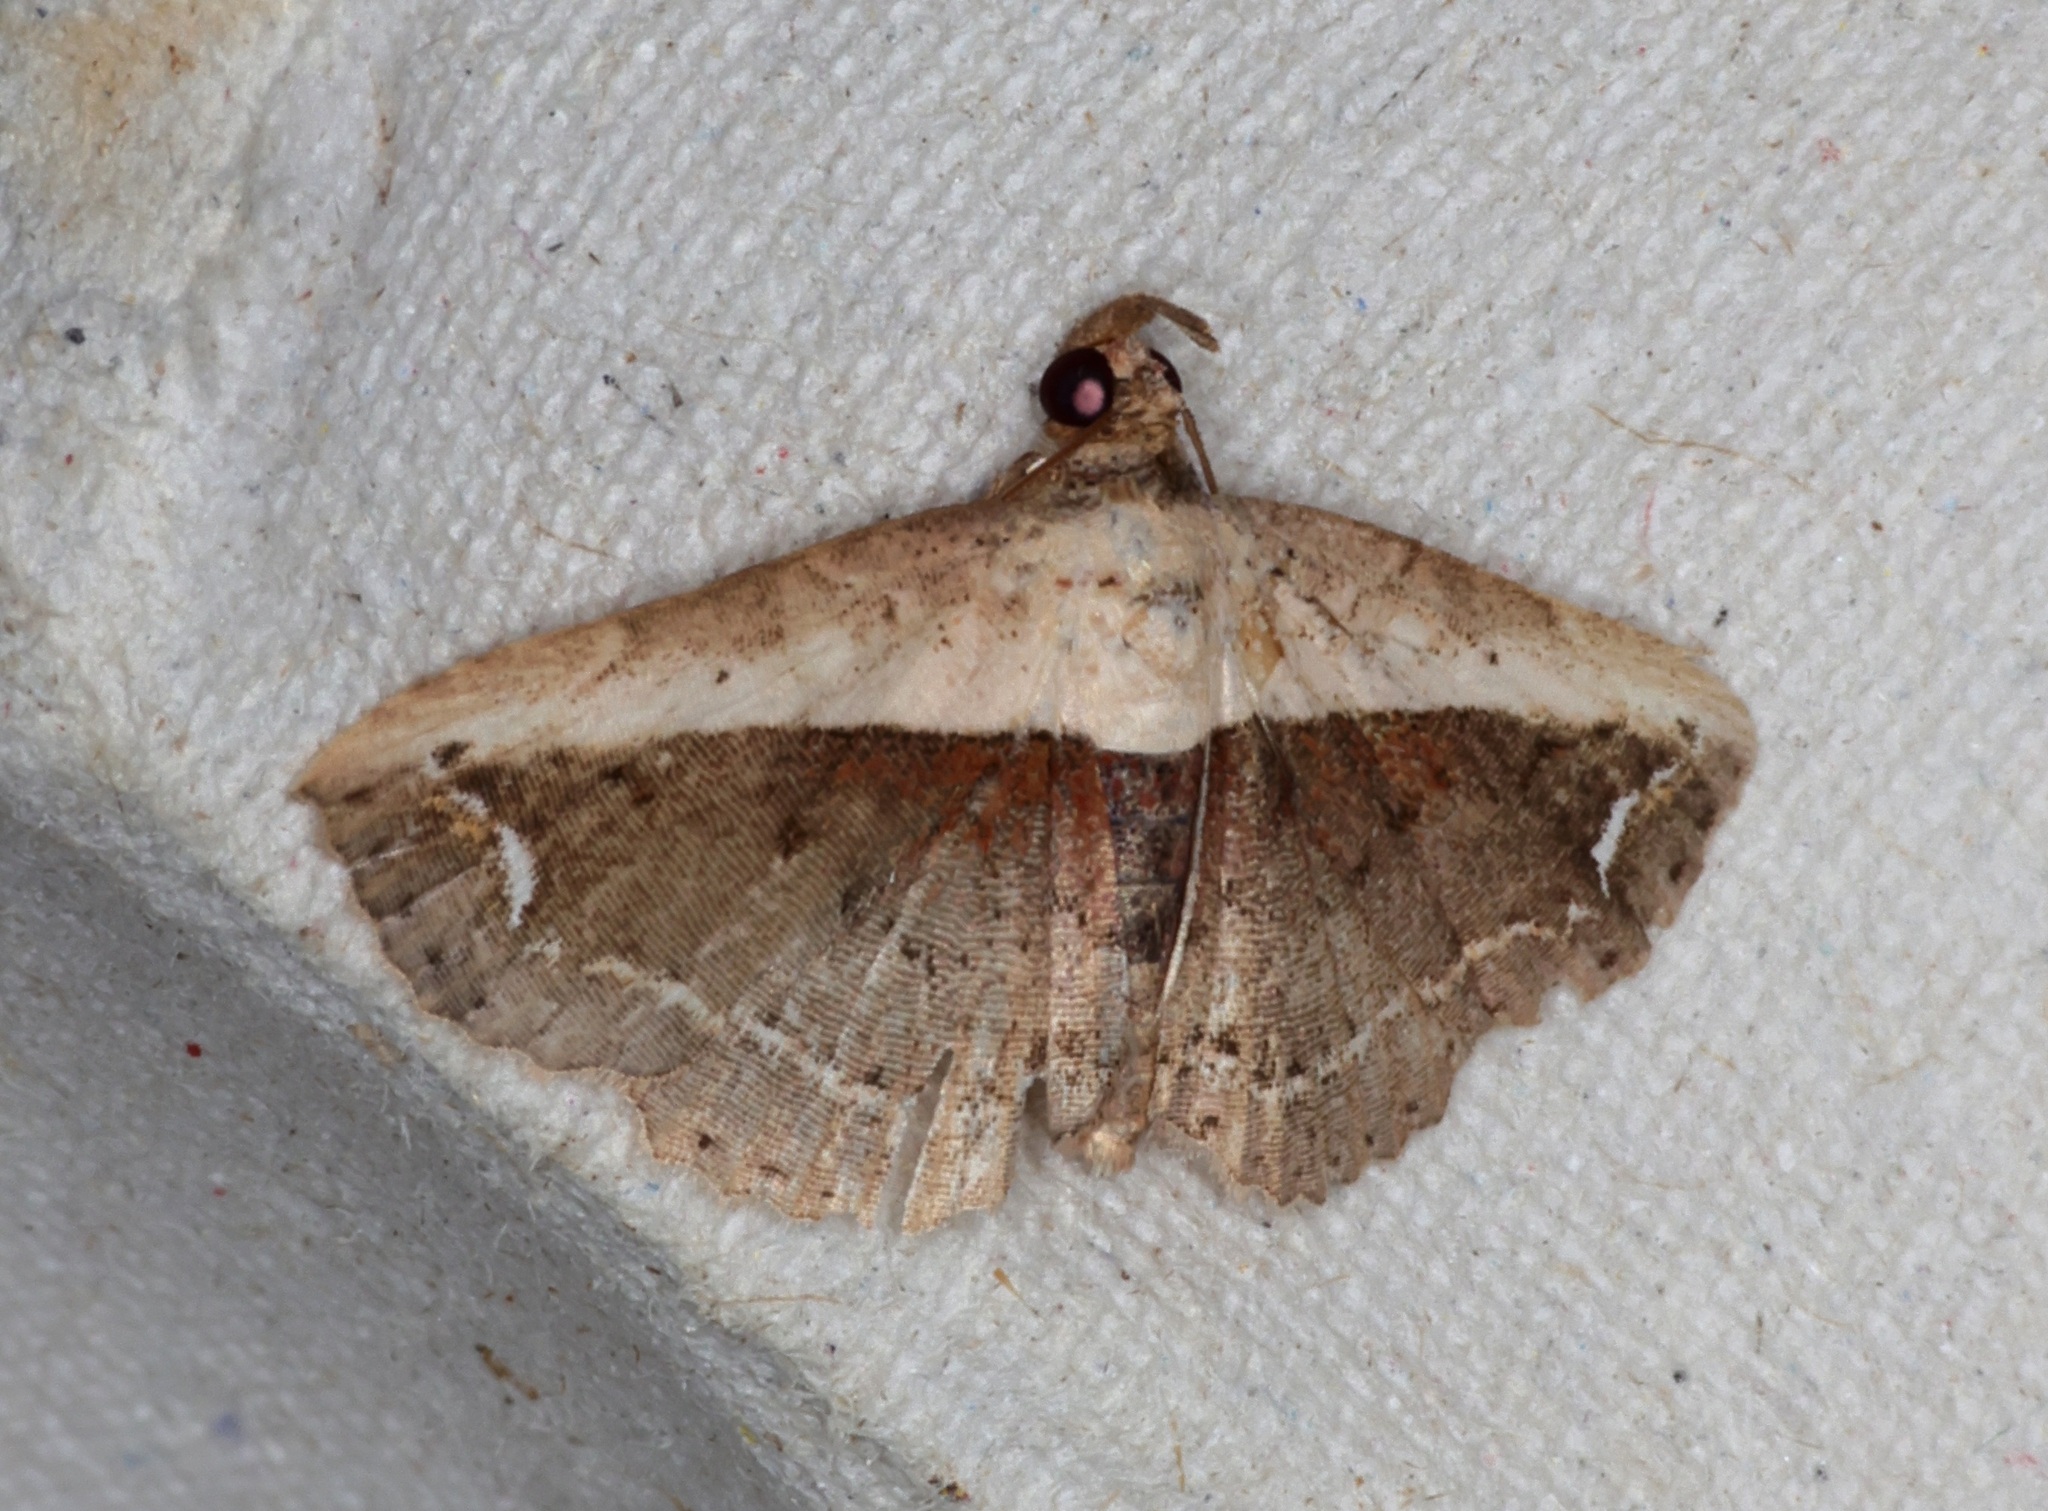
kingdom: Animalia
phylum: Arthropoda
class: Insecta
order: Lepidoptera
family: Noctuidae
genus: Eugnathia
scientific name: Eugnathia lunifera
